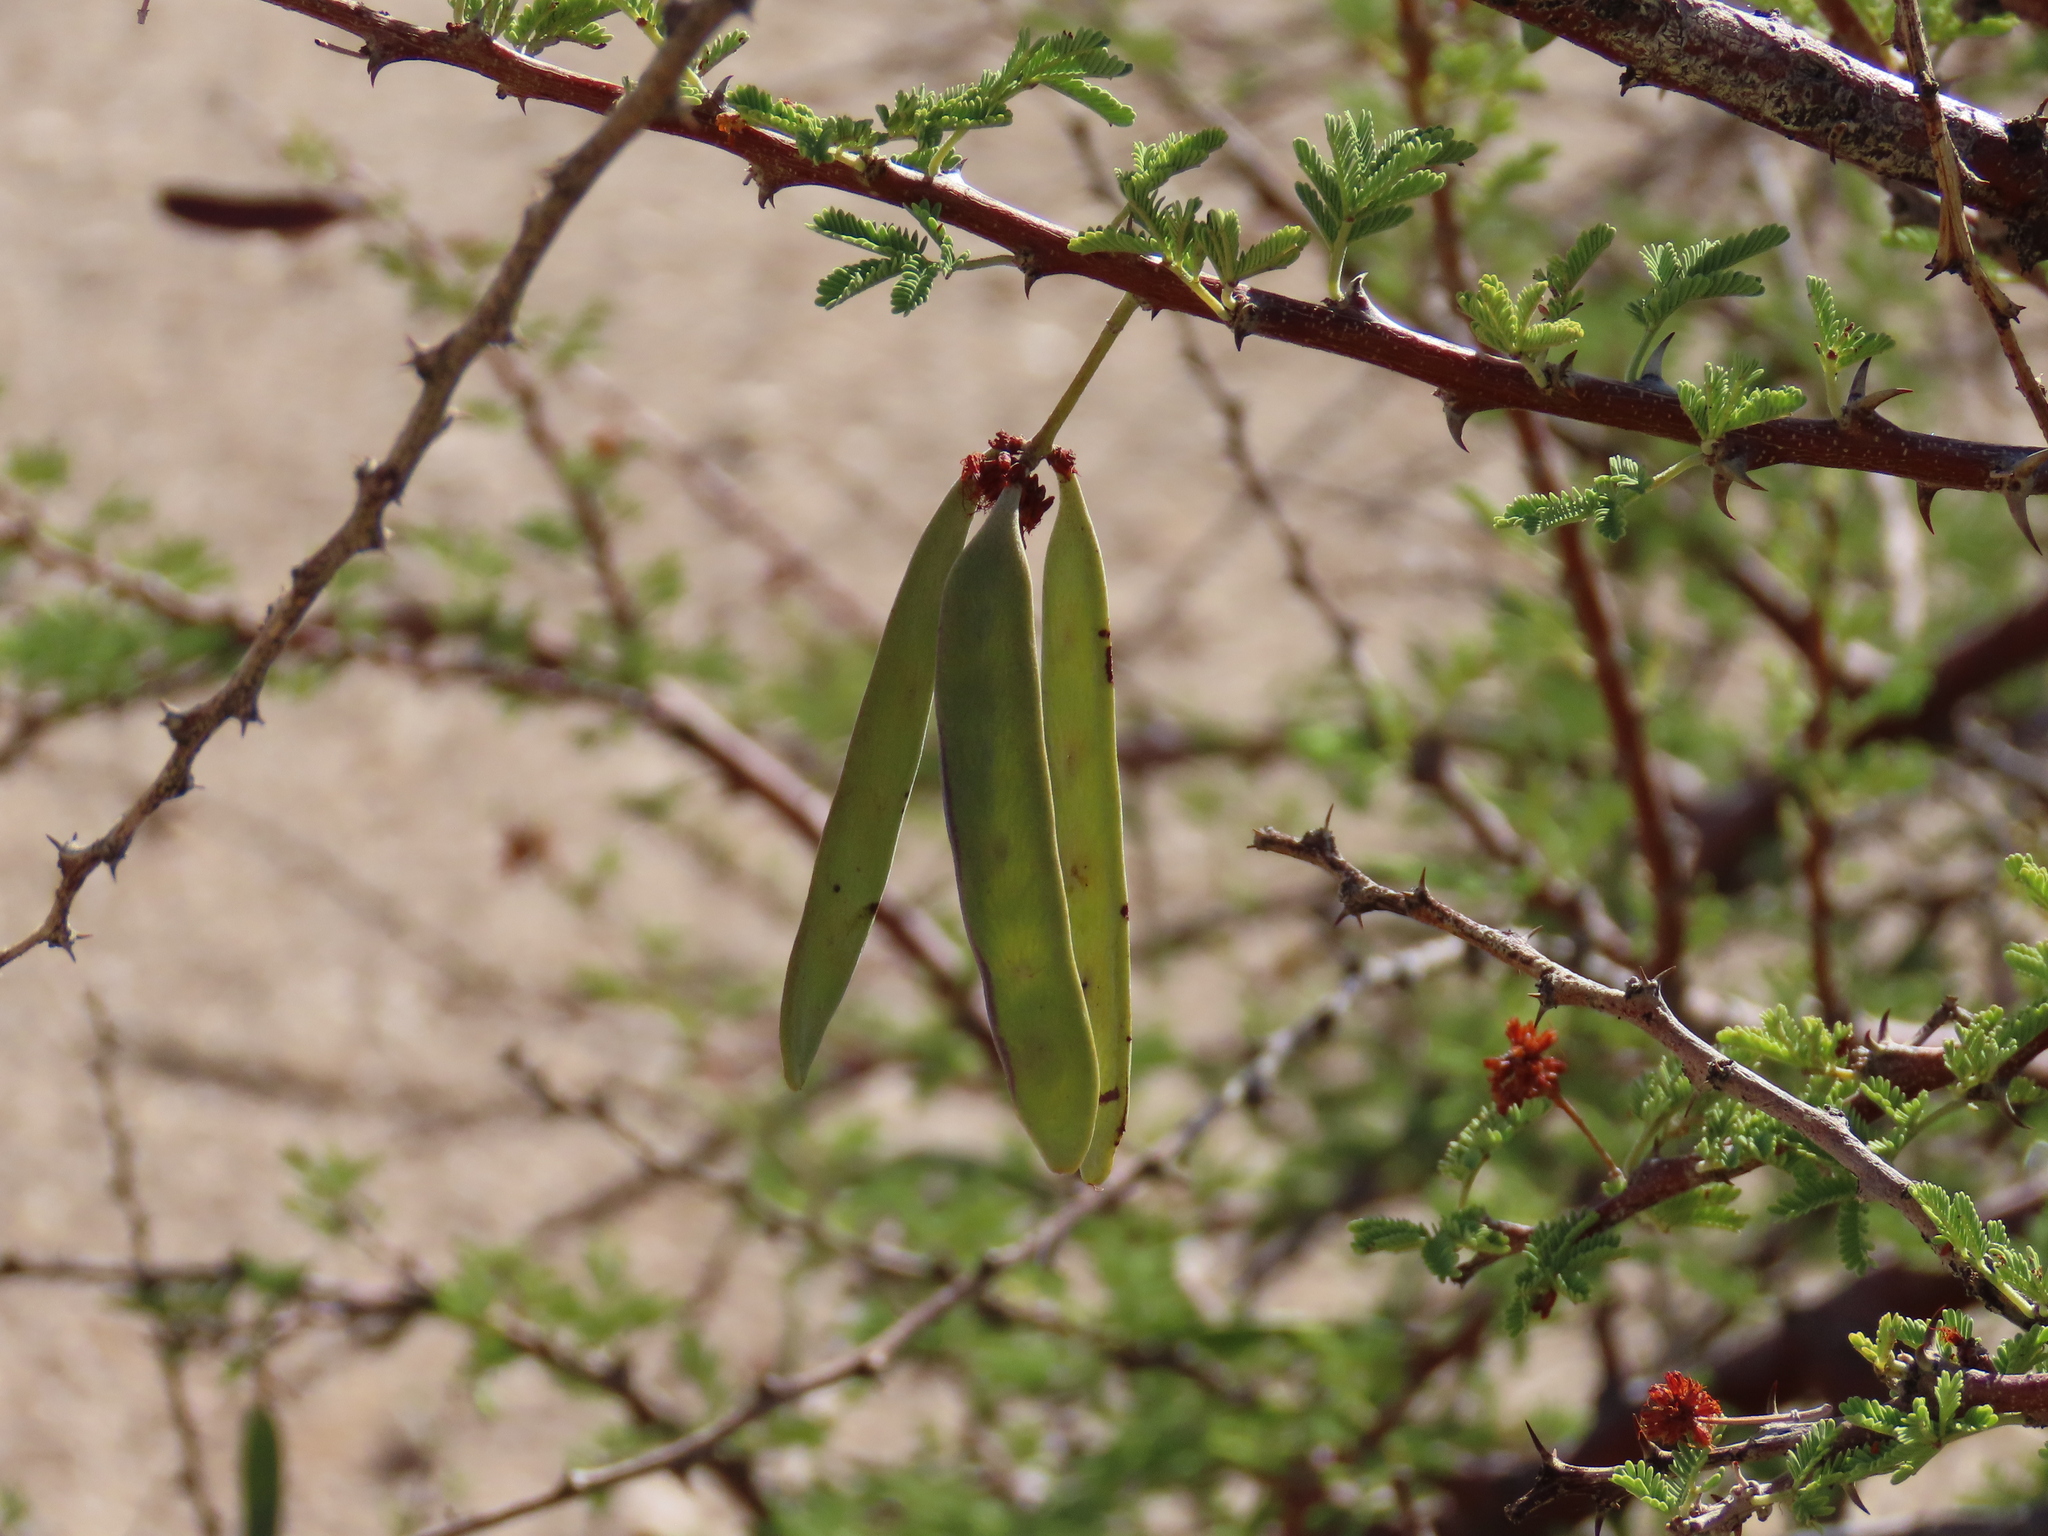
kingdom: Plantae
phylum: Tracheophyta
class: Magnoliopsida
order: Fabales
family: Fabaceae
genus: Vachellia
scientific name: Vachellia reficiens
